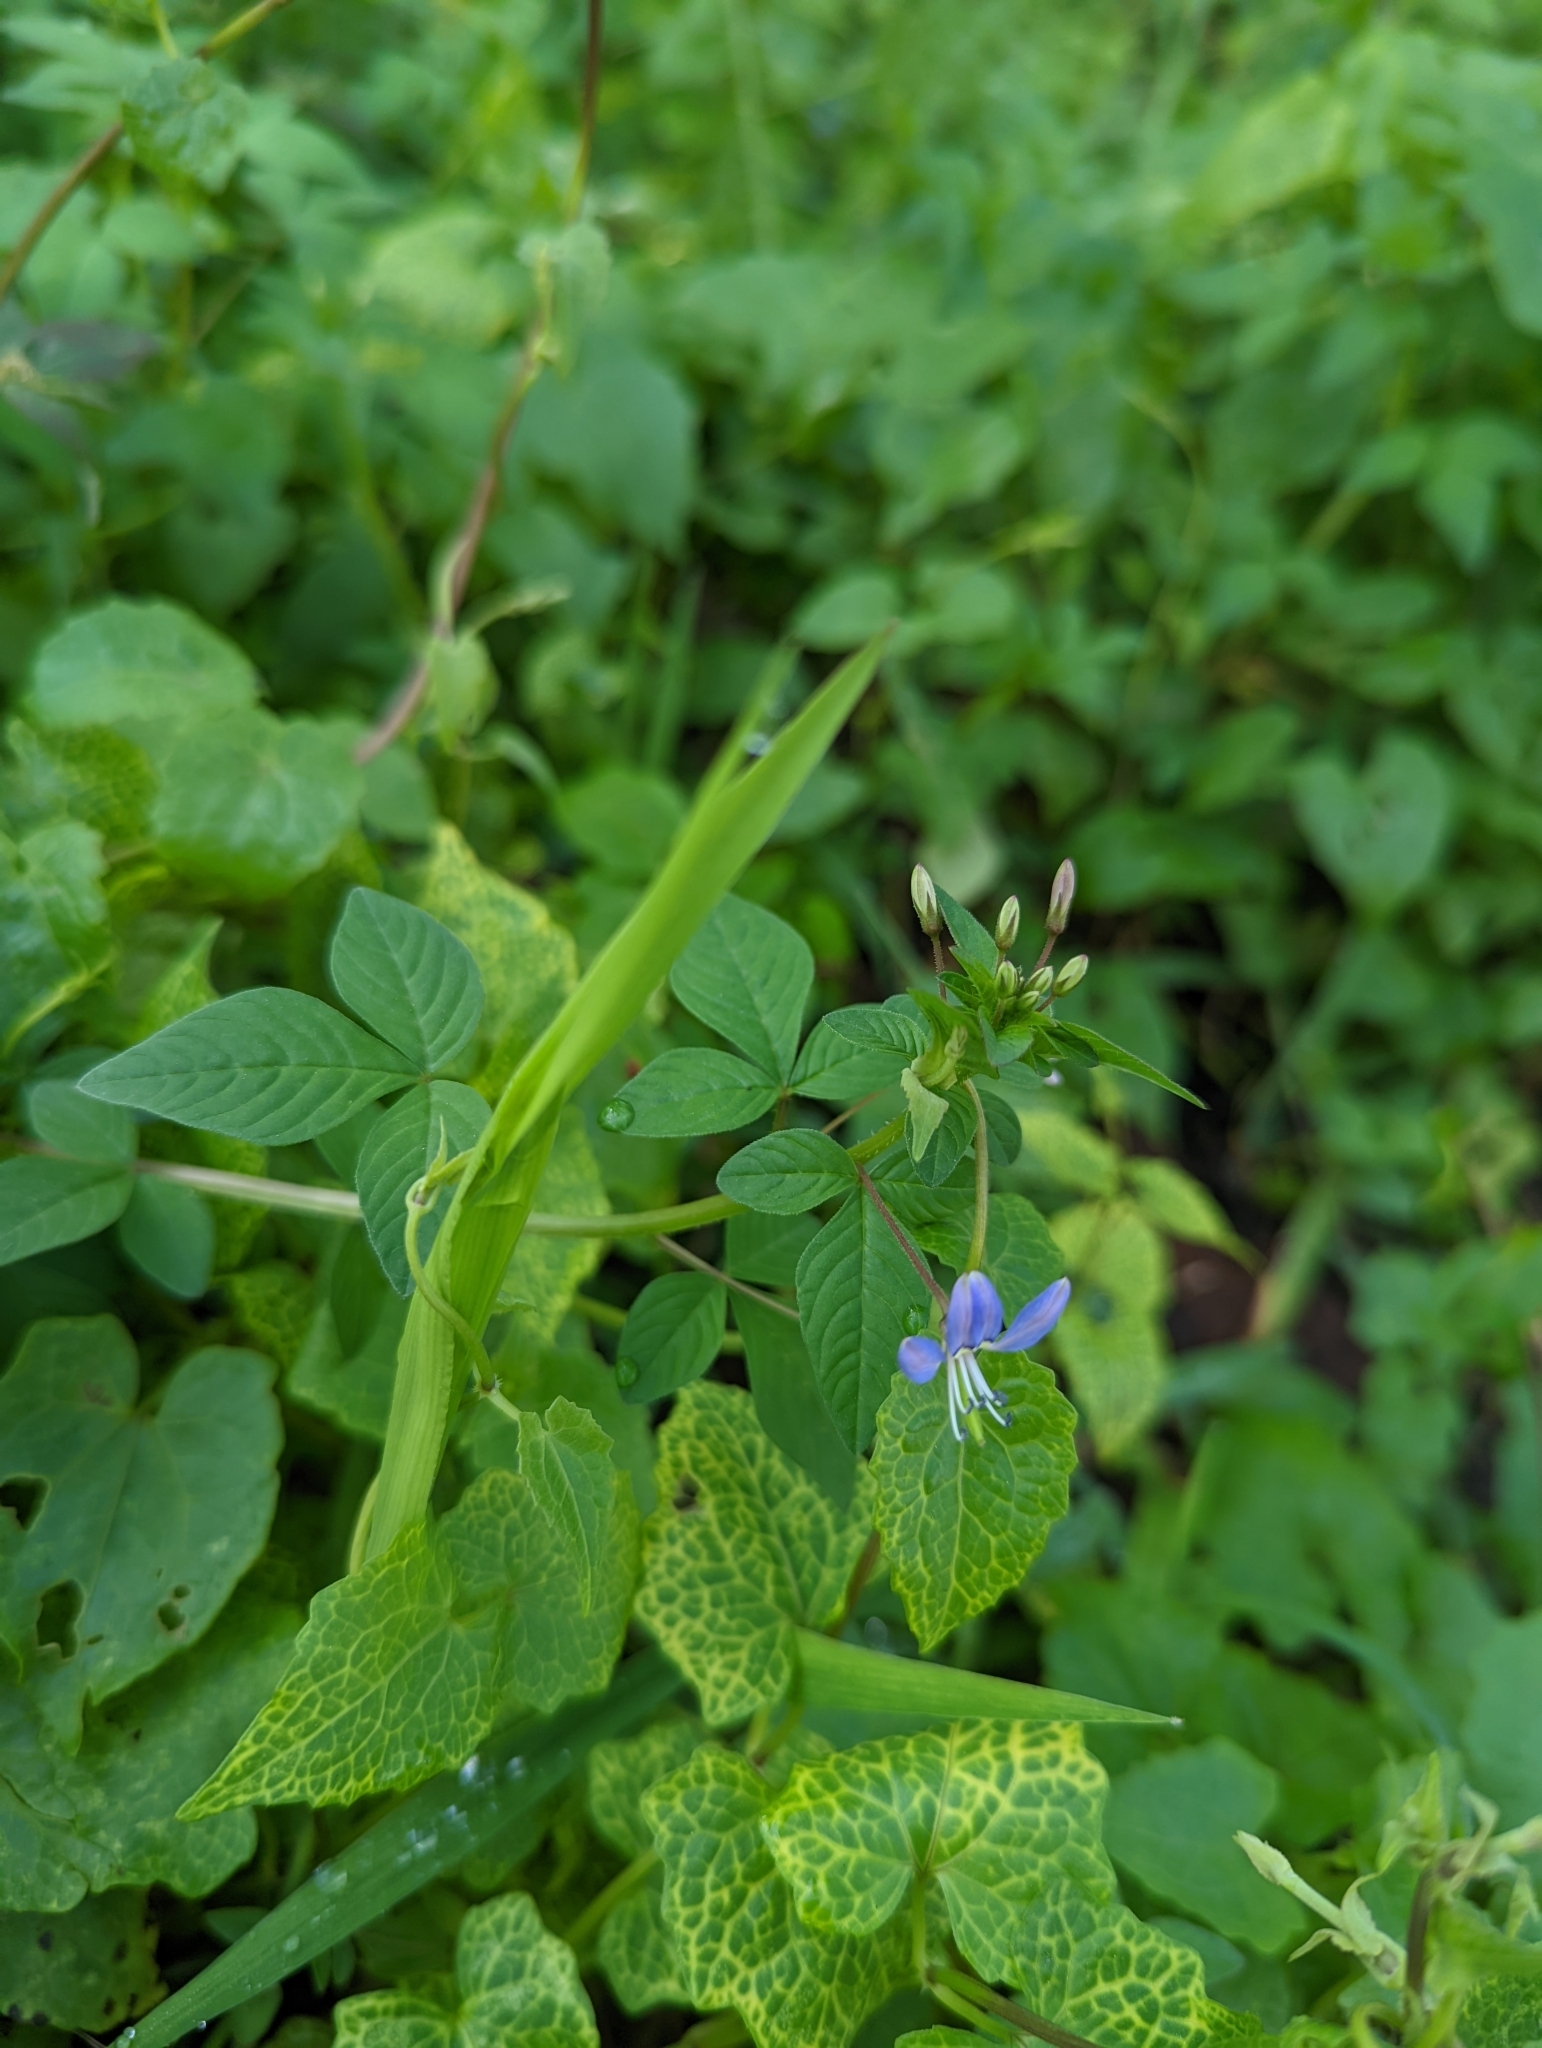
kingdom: Plantae
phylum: Tracheophyta
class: Magnoliopsida
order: Brassicales
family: Cleomaceae
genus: Sieruela
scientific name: Sieruela rutidosperma
